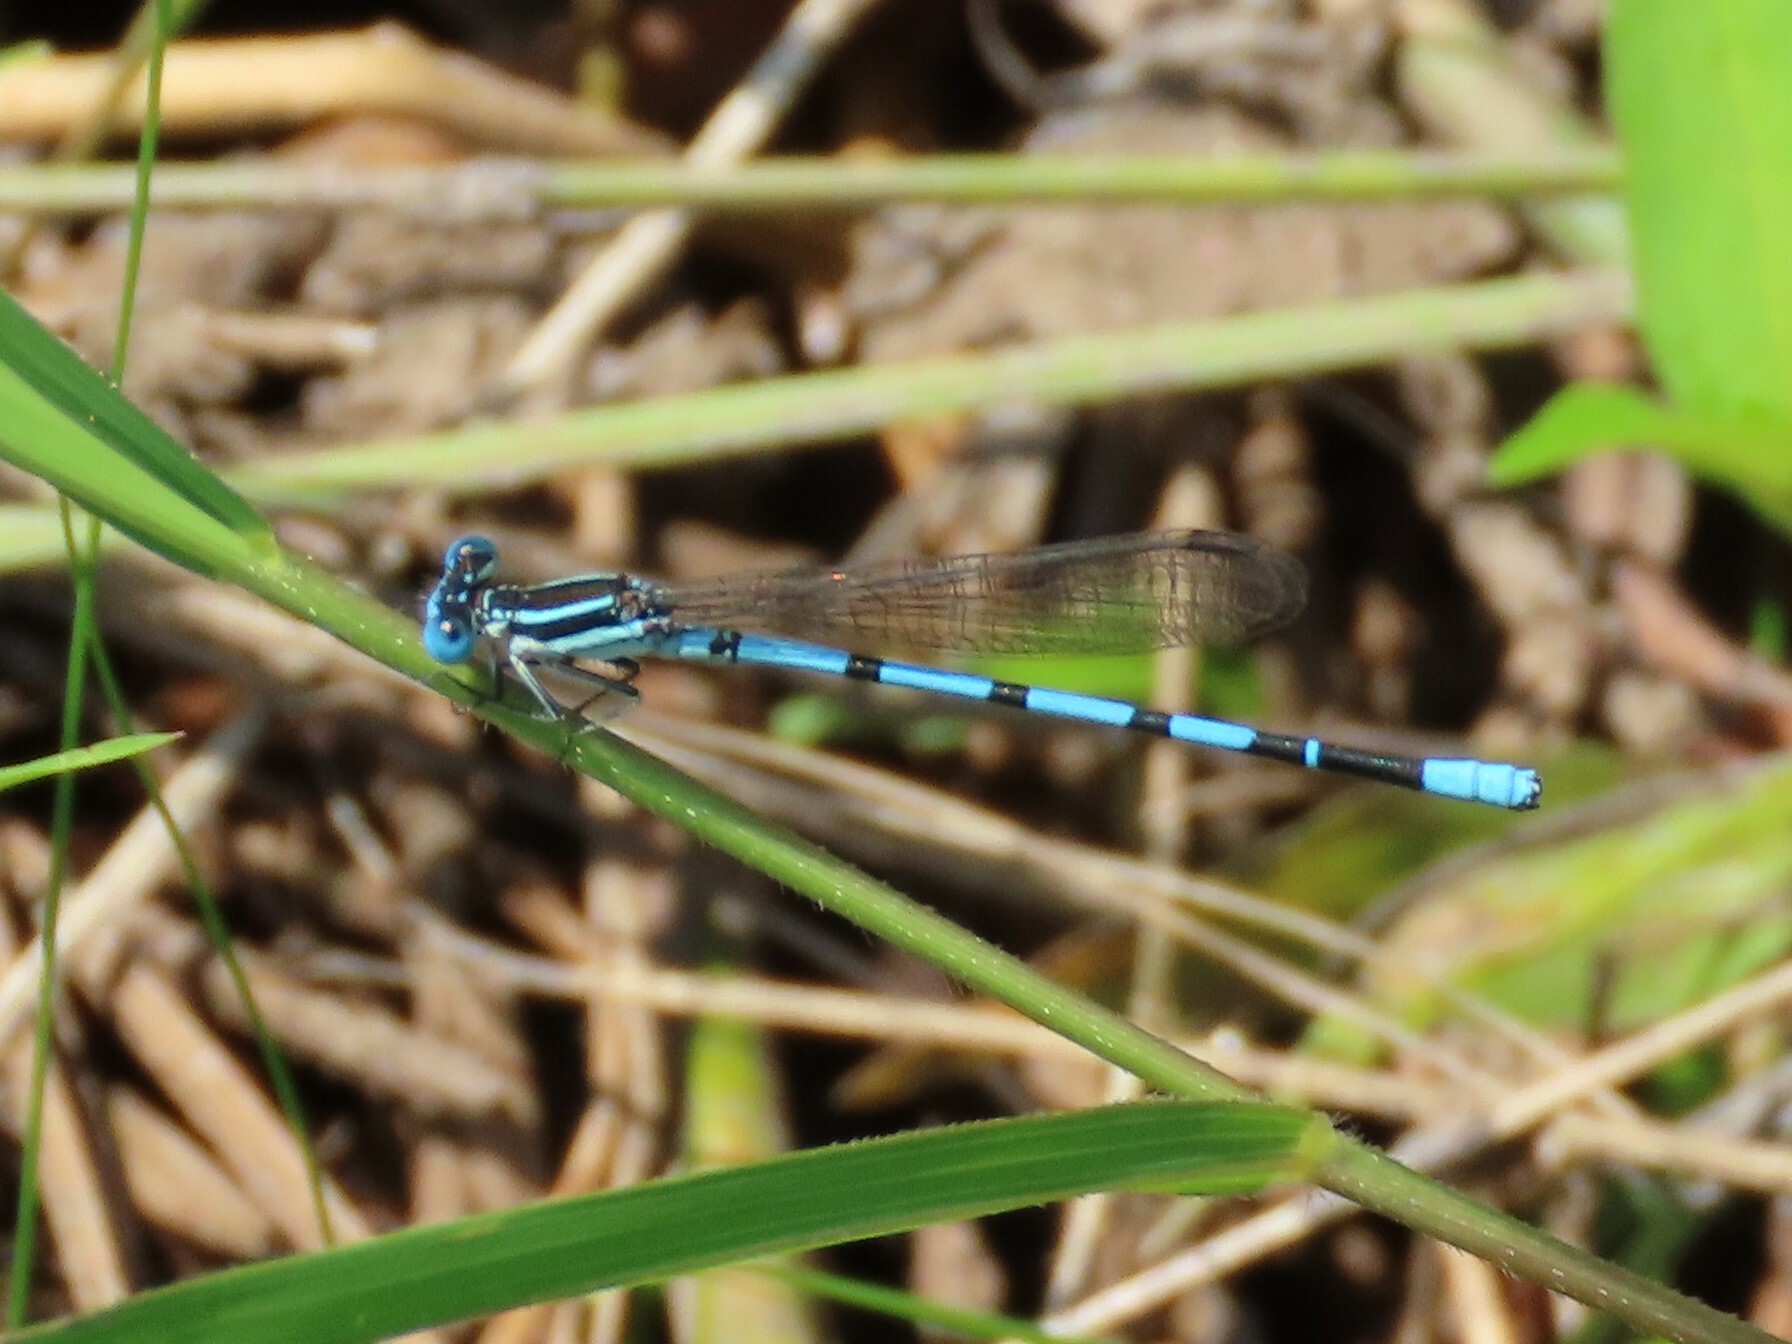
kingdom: Animalia
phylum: Arthropoda
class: Insecta
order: Odonata
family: Coenagrionidae
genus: Argia
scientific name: Argia bipunctulata
